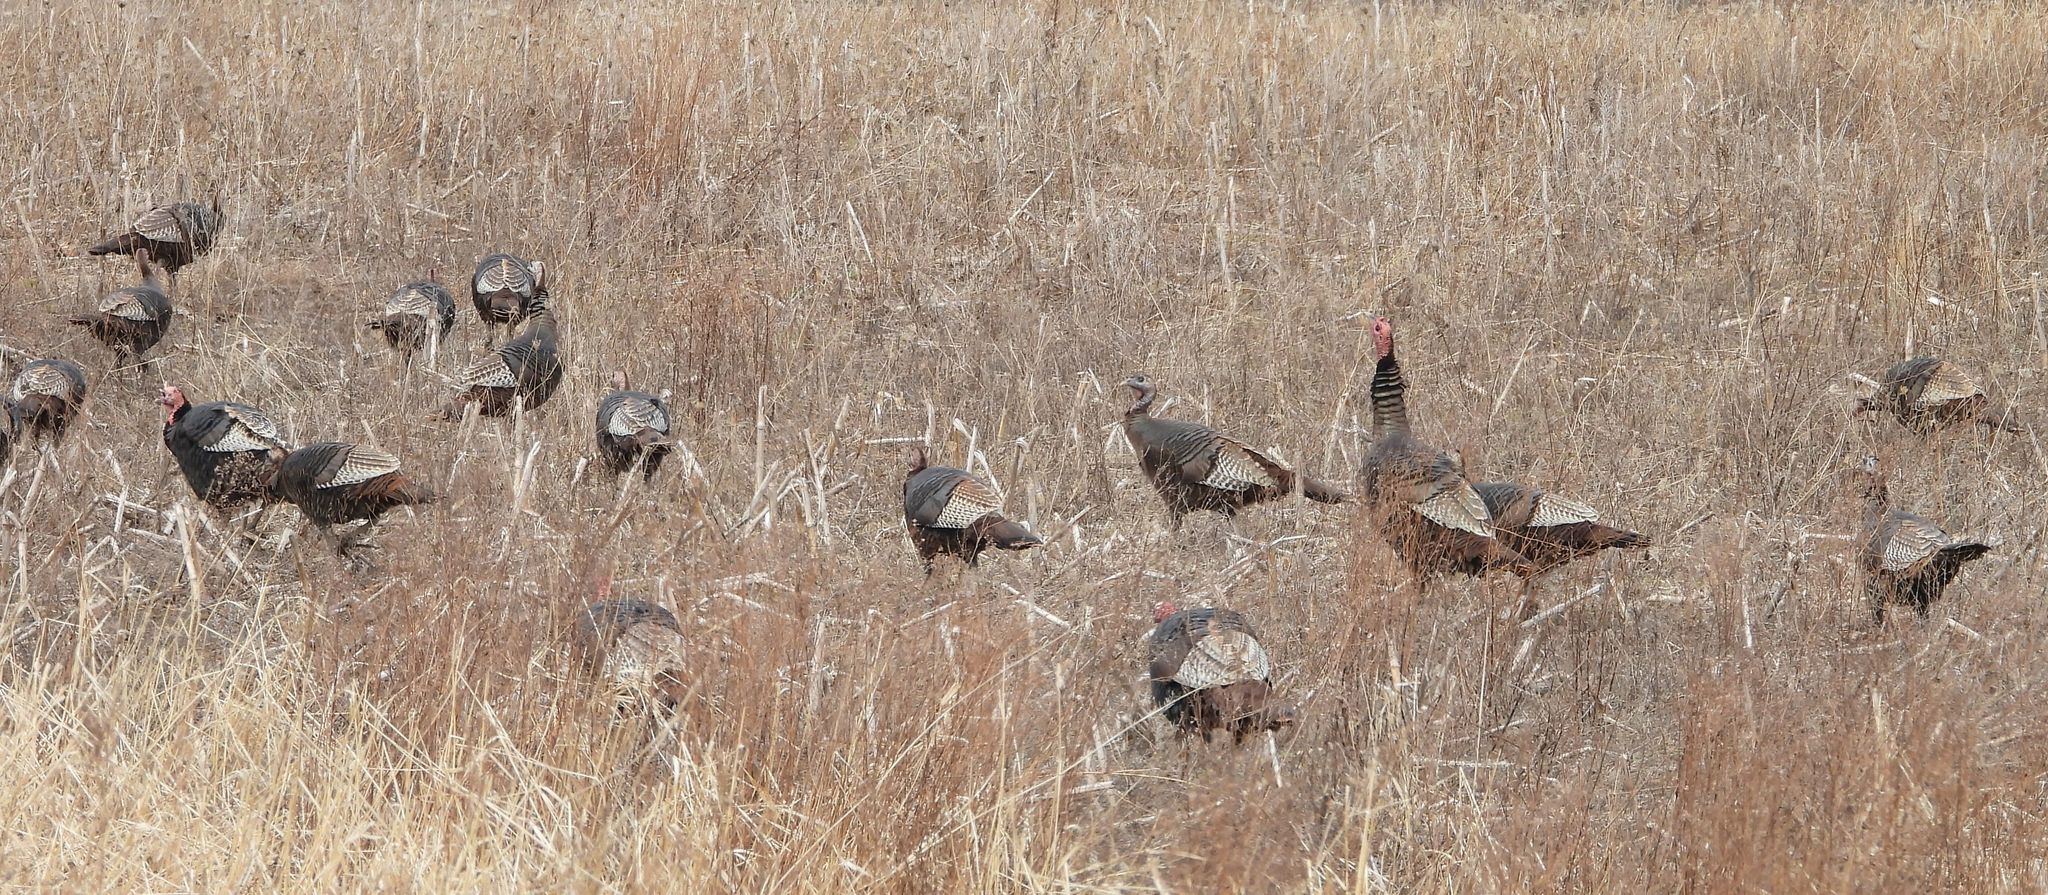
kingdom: Animalia
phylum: Chordata
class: Aves
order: Galliformes
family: Phasianidae
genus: Meleagris
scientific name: Meleagris gallopavo
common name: Wild turkey
